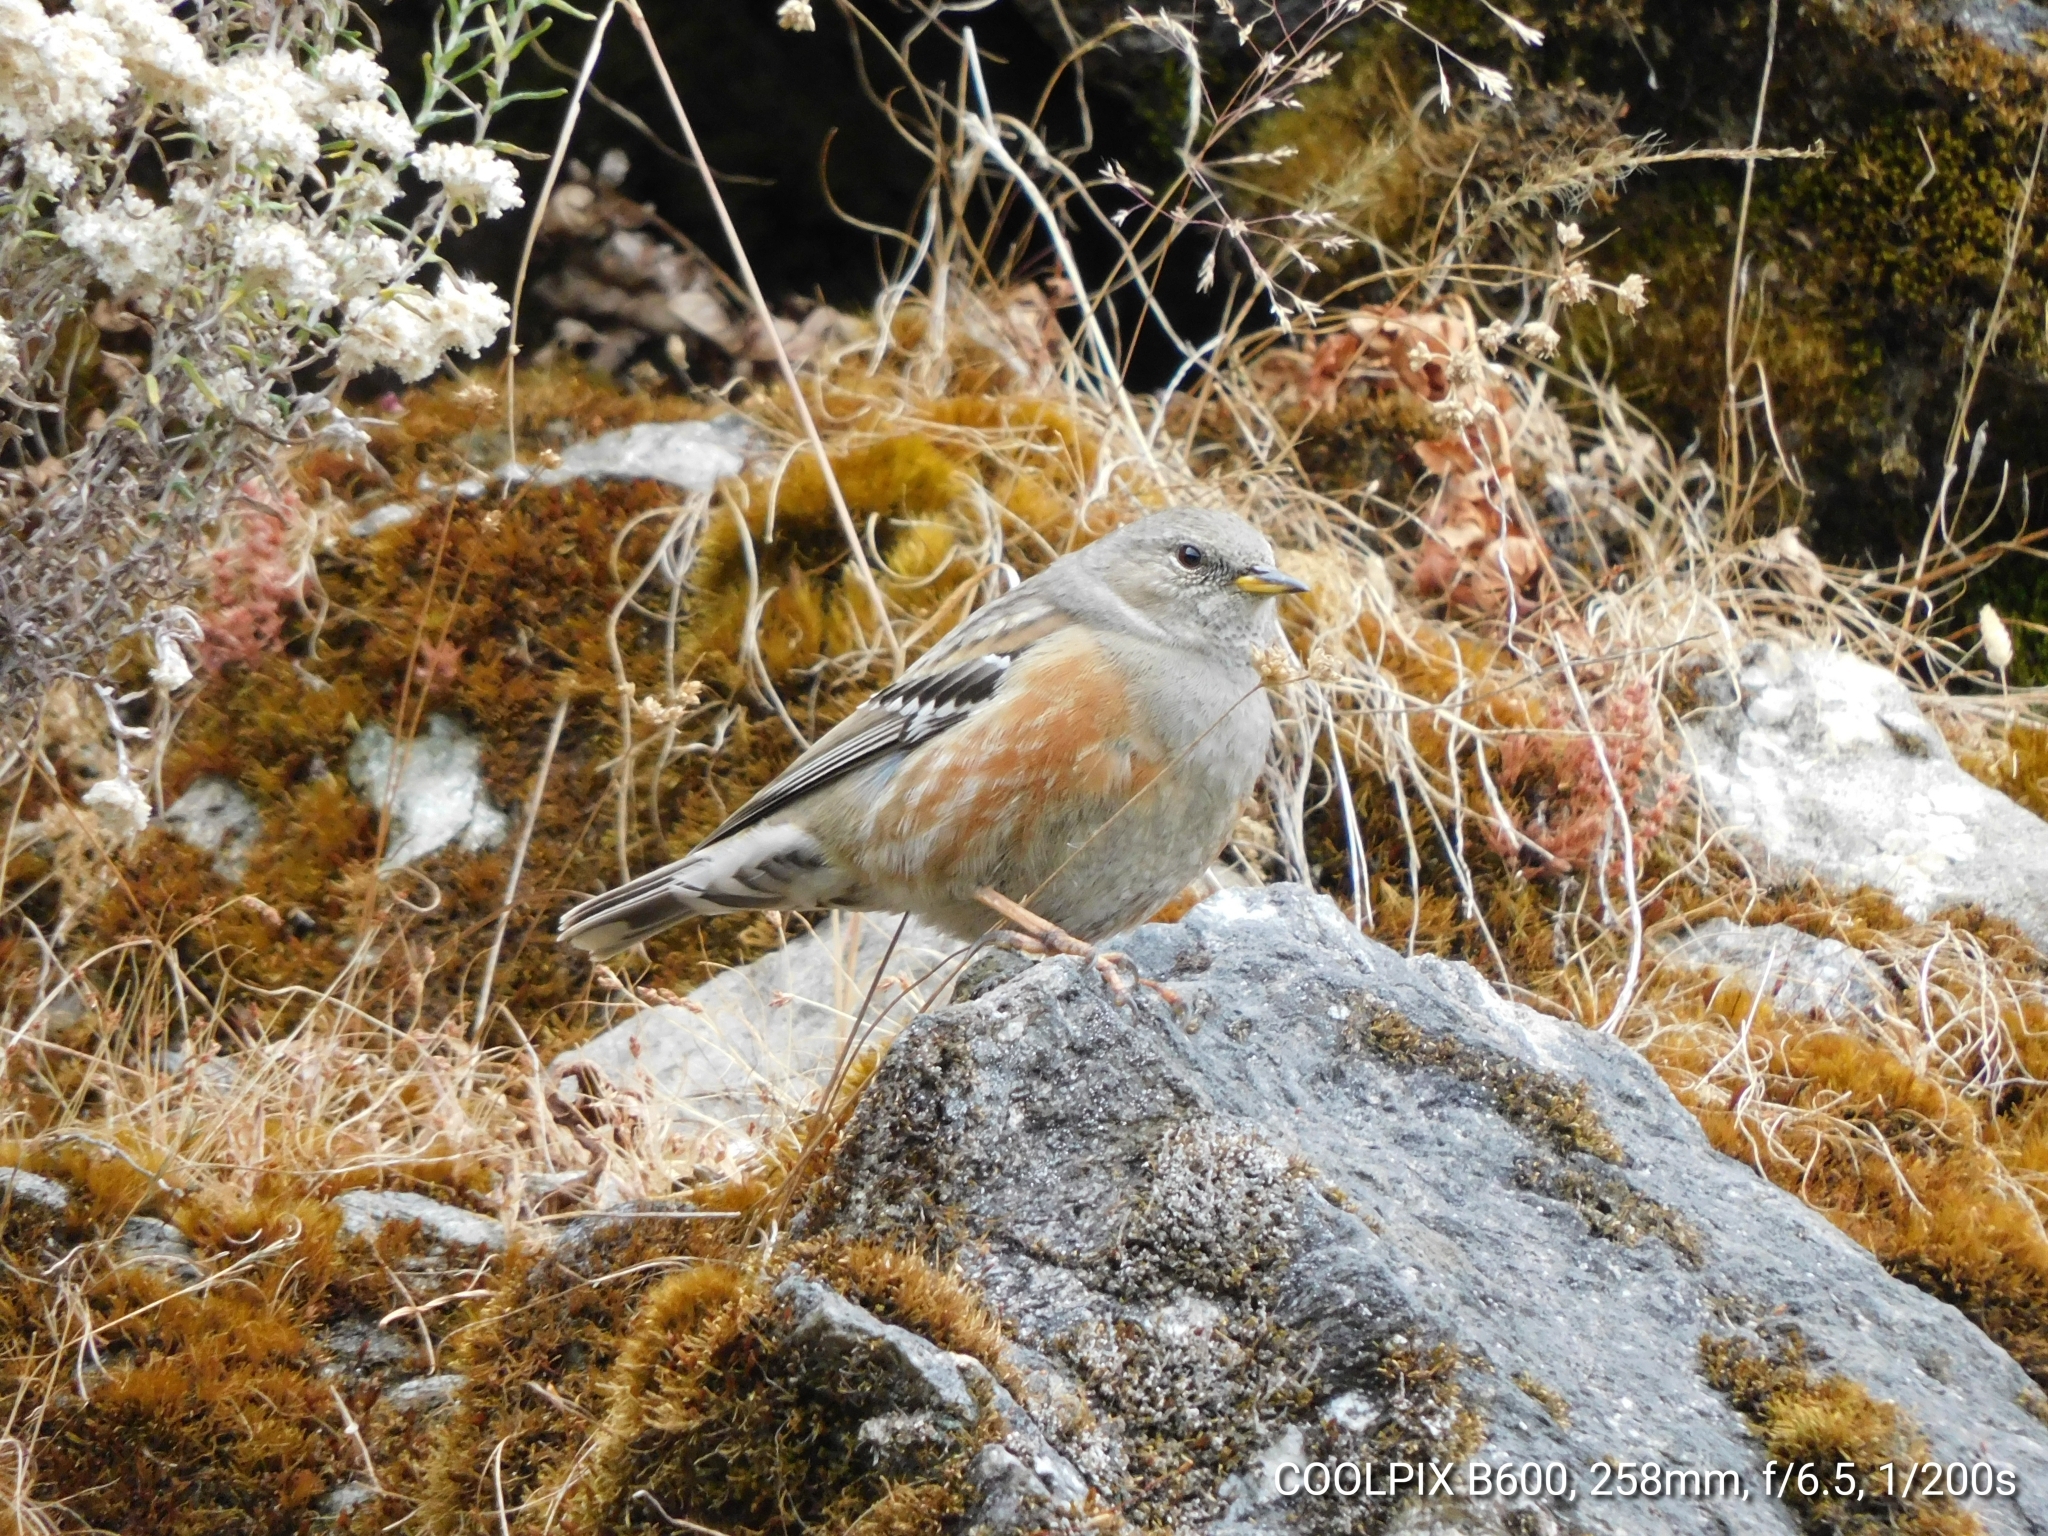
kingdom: Animalia
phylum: Chordata
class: Aves
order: Passeriformes
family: Prunellidae
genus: Prunella
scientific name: Prunella collaris
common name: Alpine accentor
